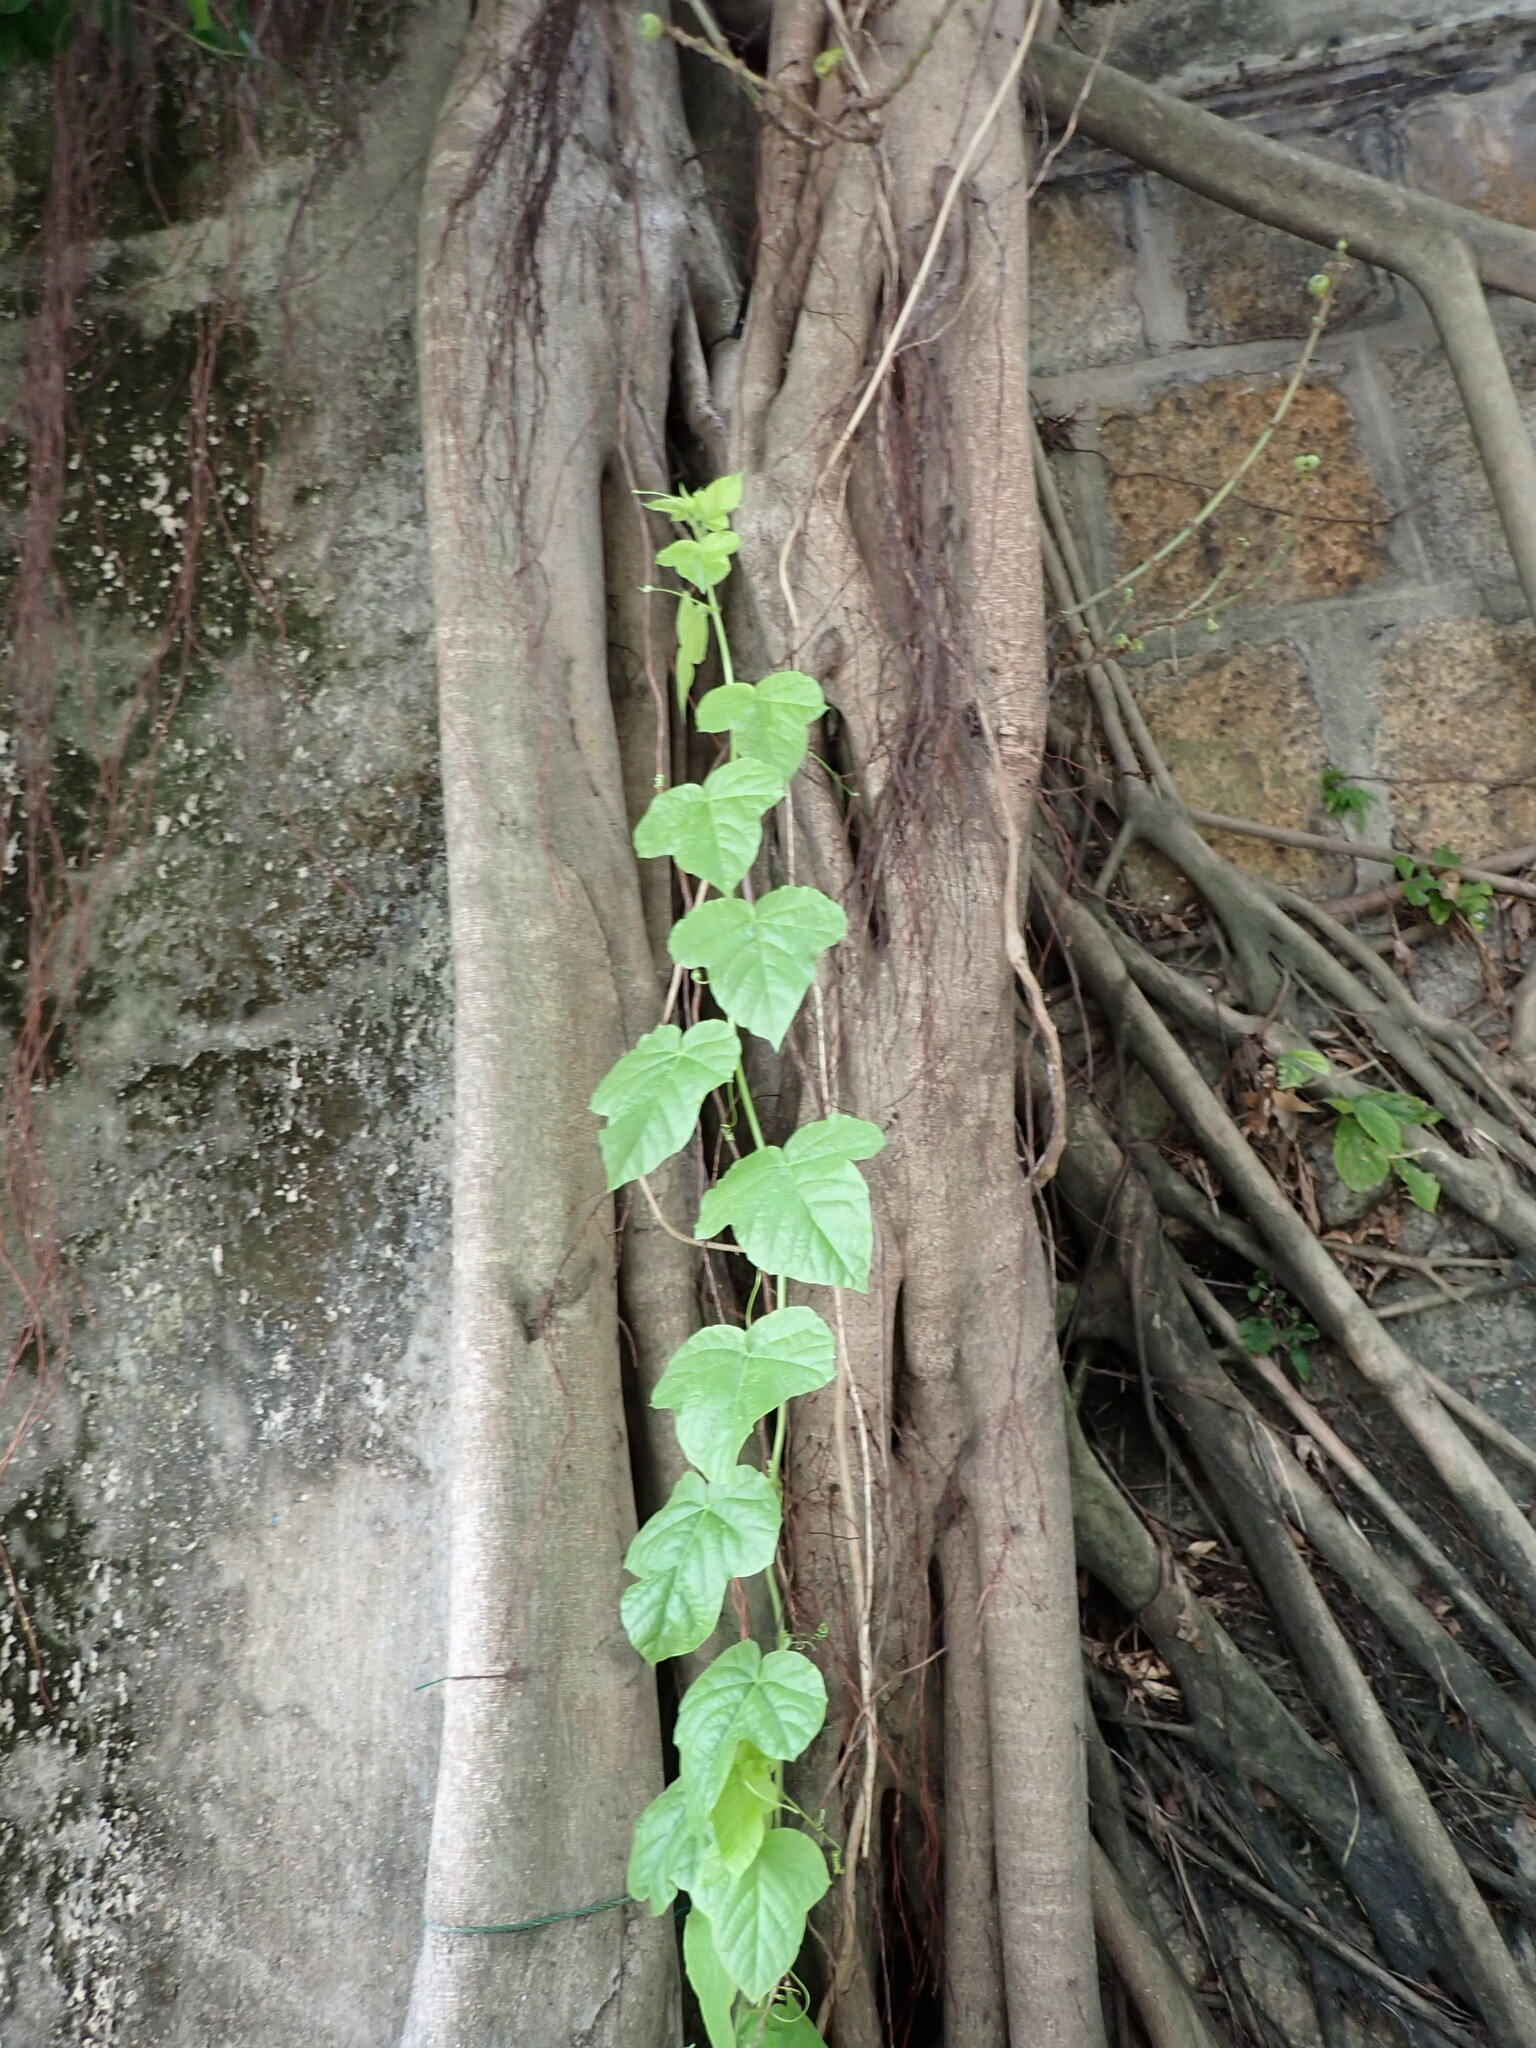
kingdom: Plantae
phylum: Tracheophyta
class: Magnoliopsida
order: Malpighiales
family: Passifloraceae
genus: Passiflora
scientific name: Passiflora vesicaria
